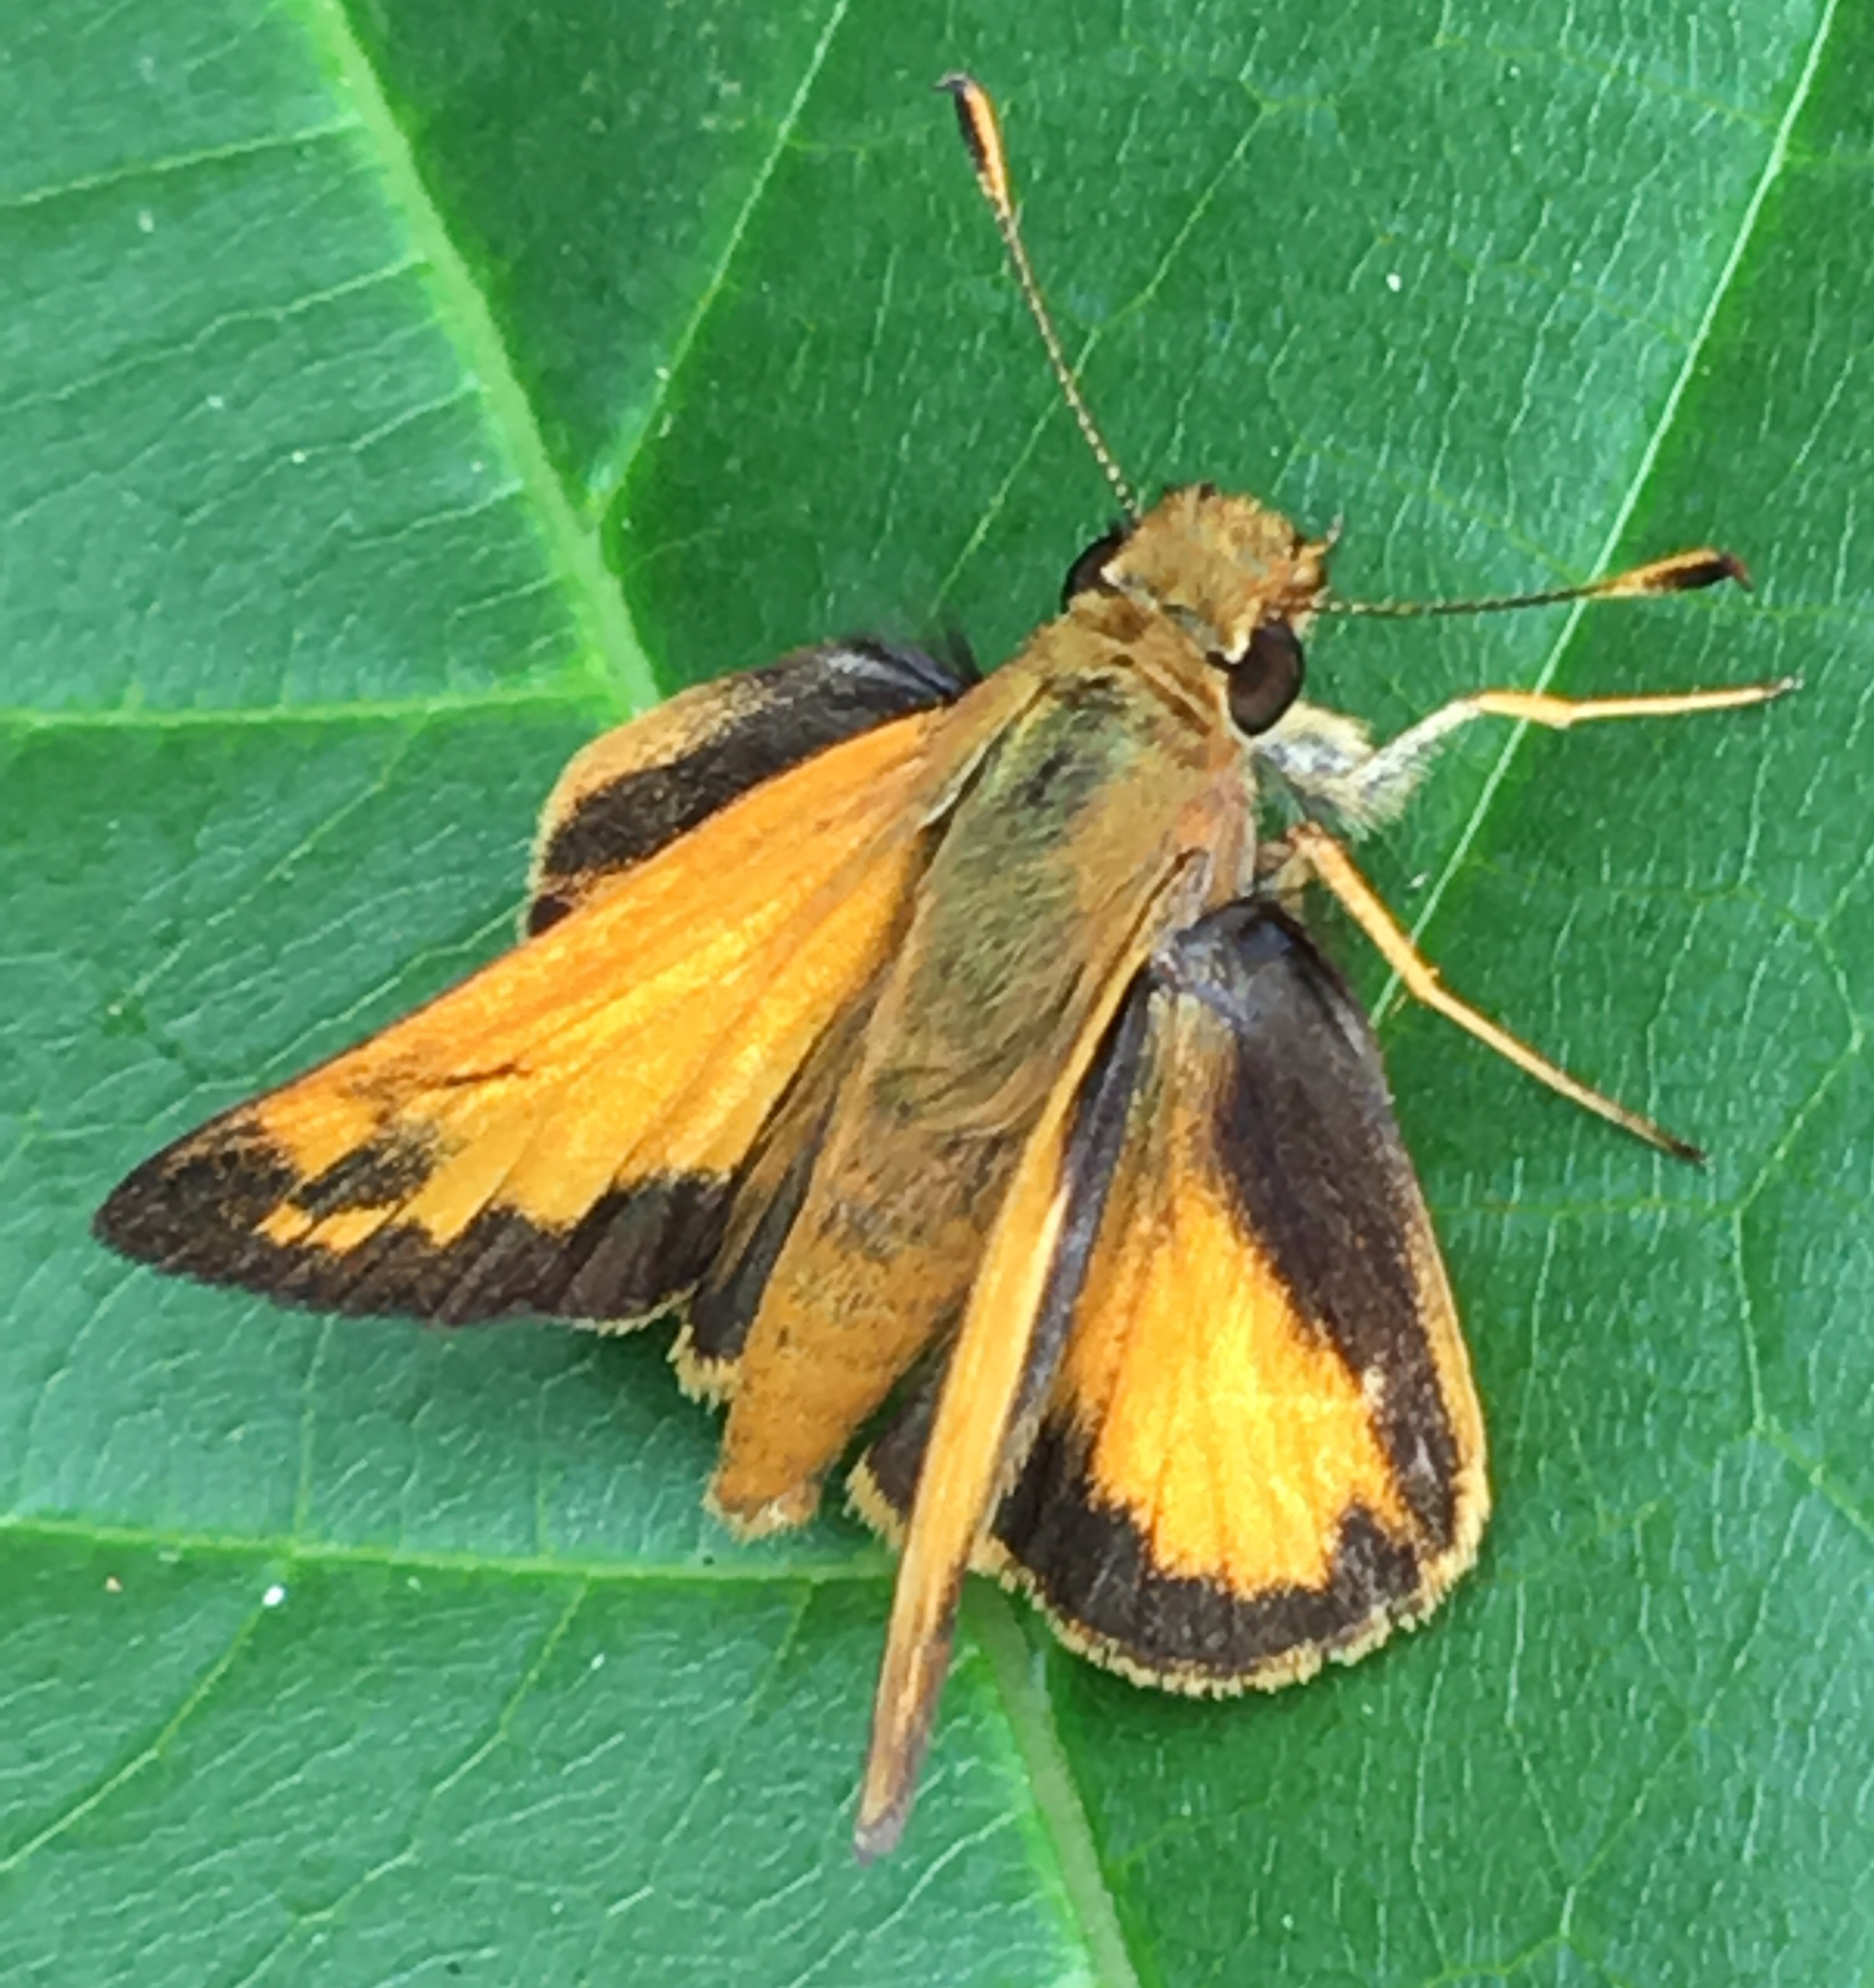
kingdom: Animalia
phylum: Arthropoda
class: Insecta
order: Lepidoptera
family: Hesperiidae
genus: Lon
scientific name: Lon zabulon
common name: Zabulon skipper
